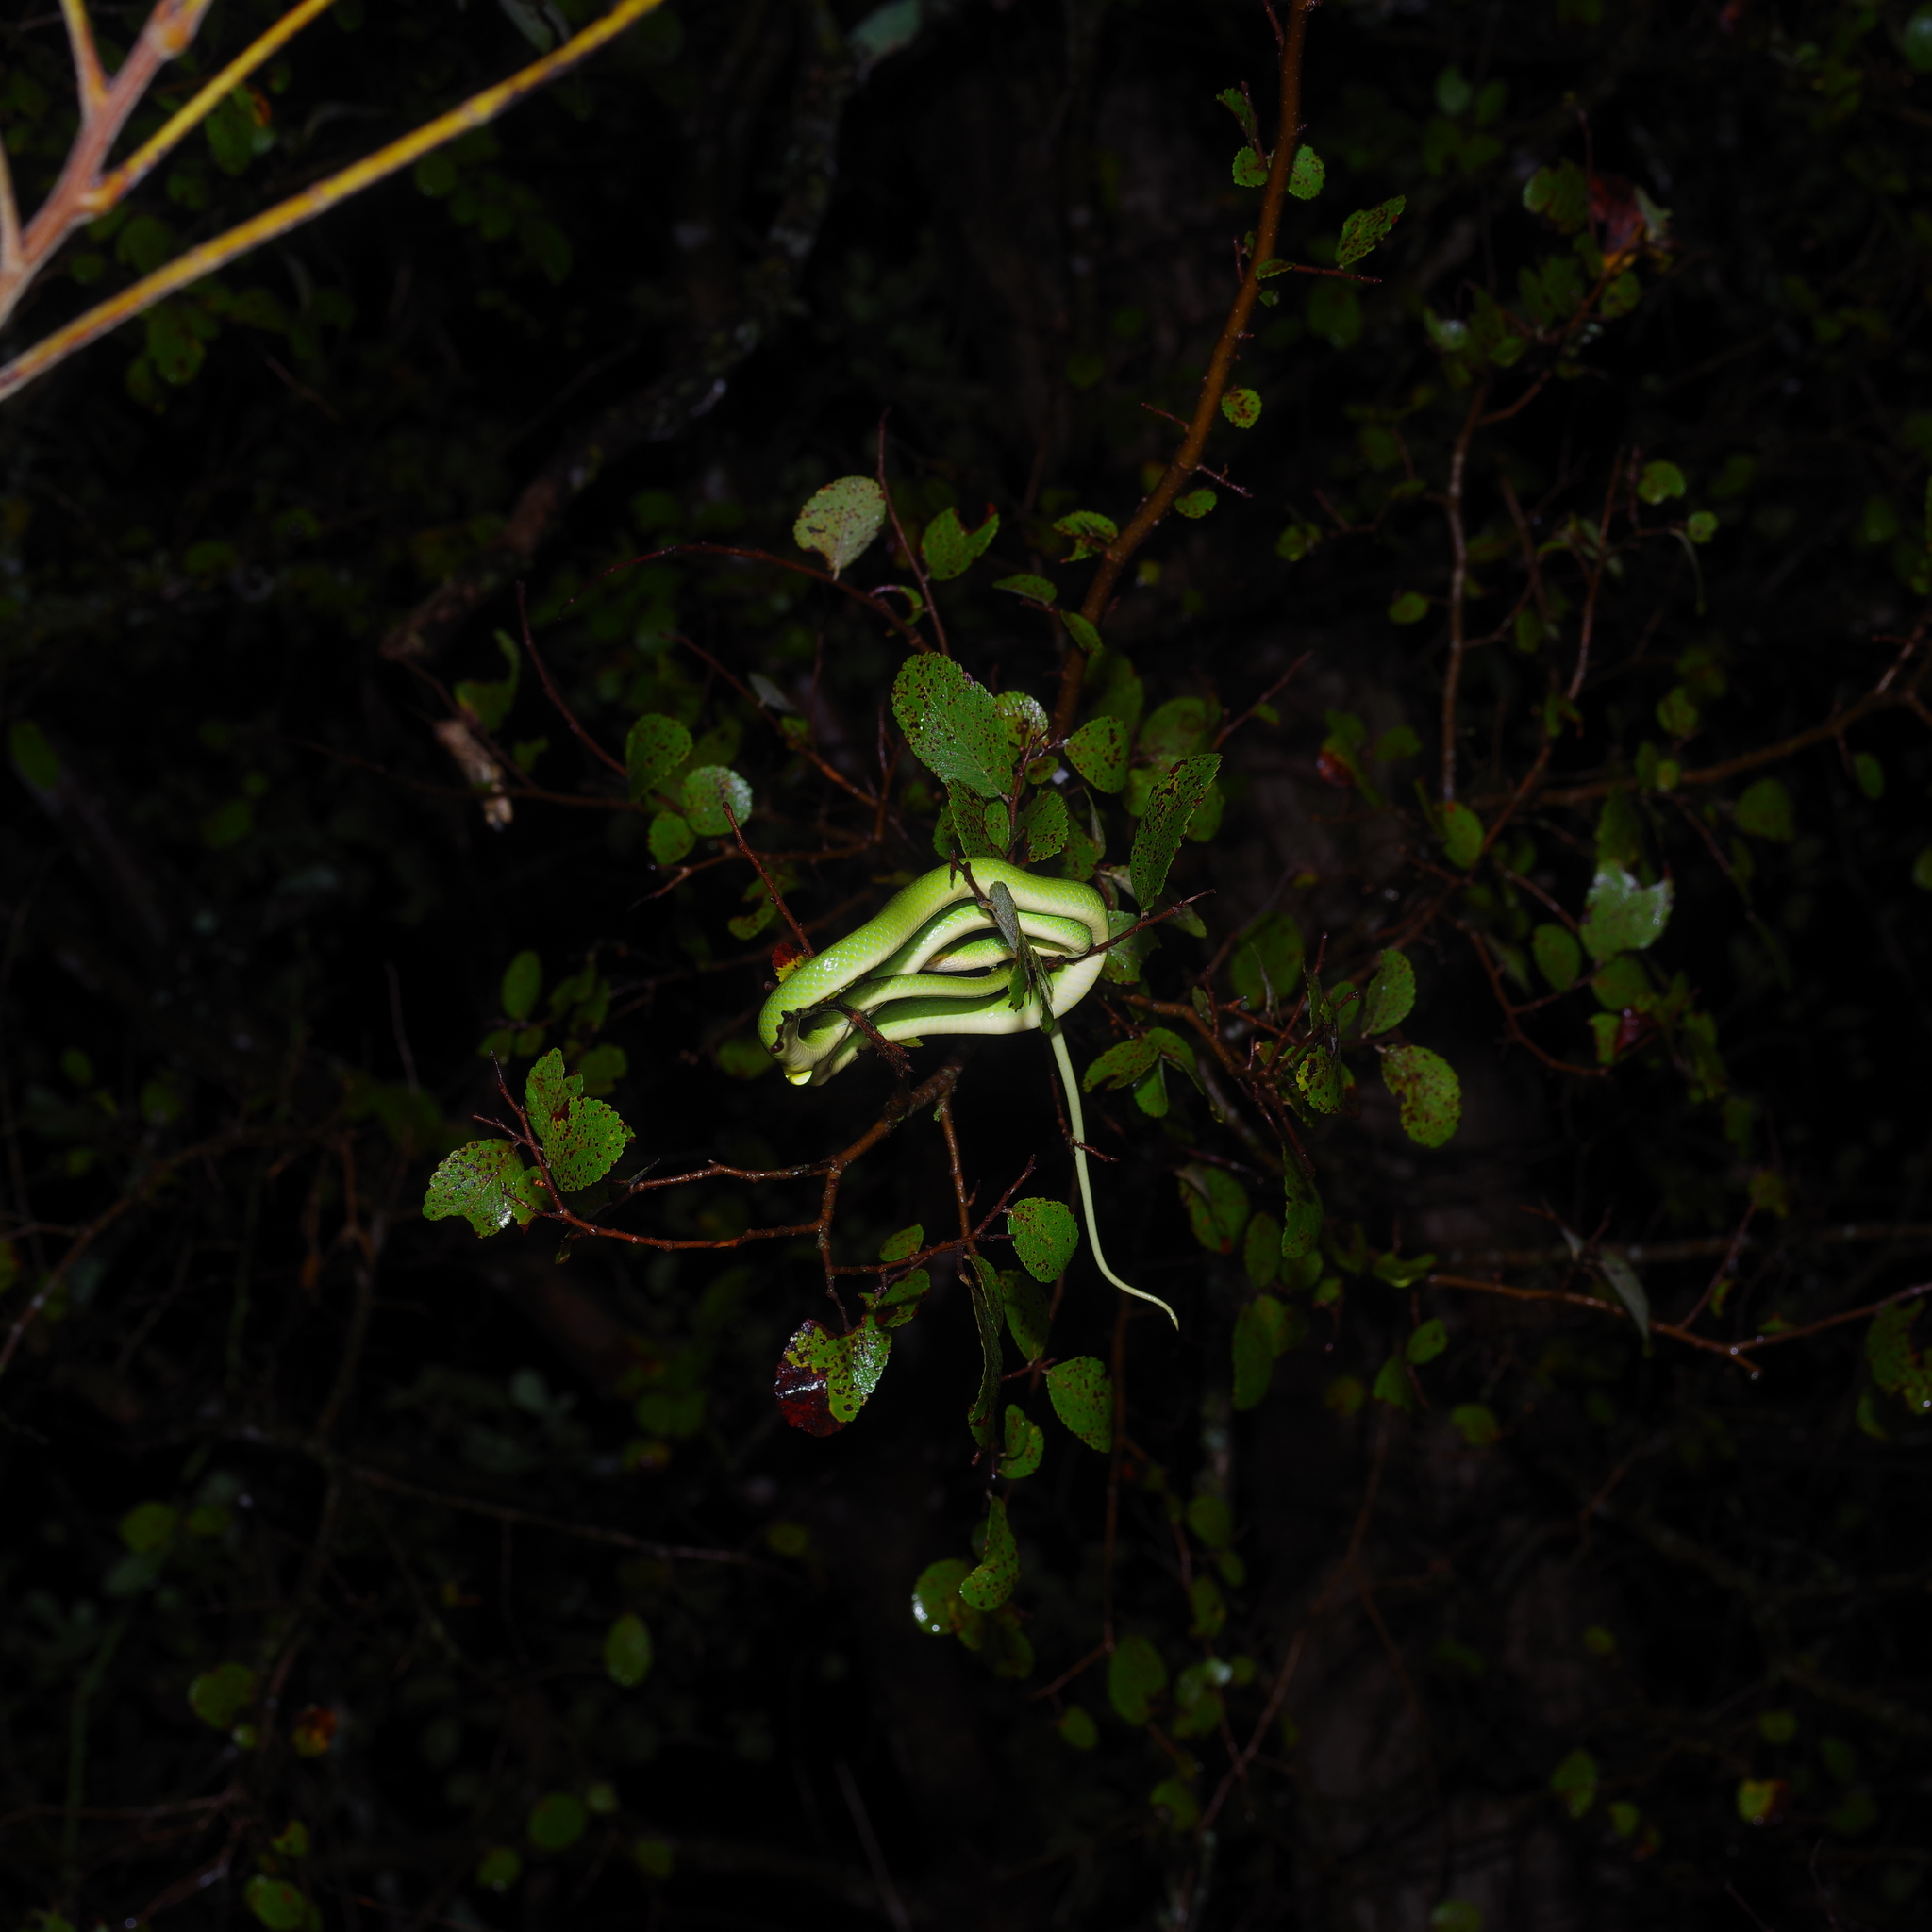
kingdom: Animalia
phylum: Chordata
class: Squamata
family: Colubridae
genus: Opheodrys
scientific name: Opheodrys aestivus
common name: Rough greensnake
